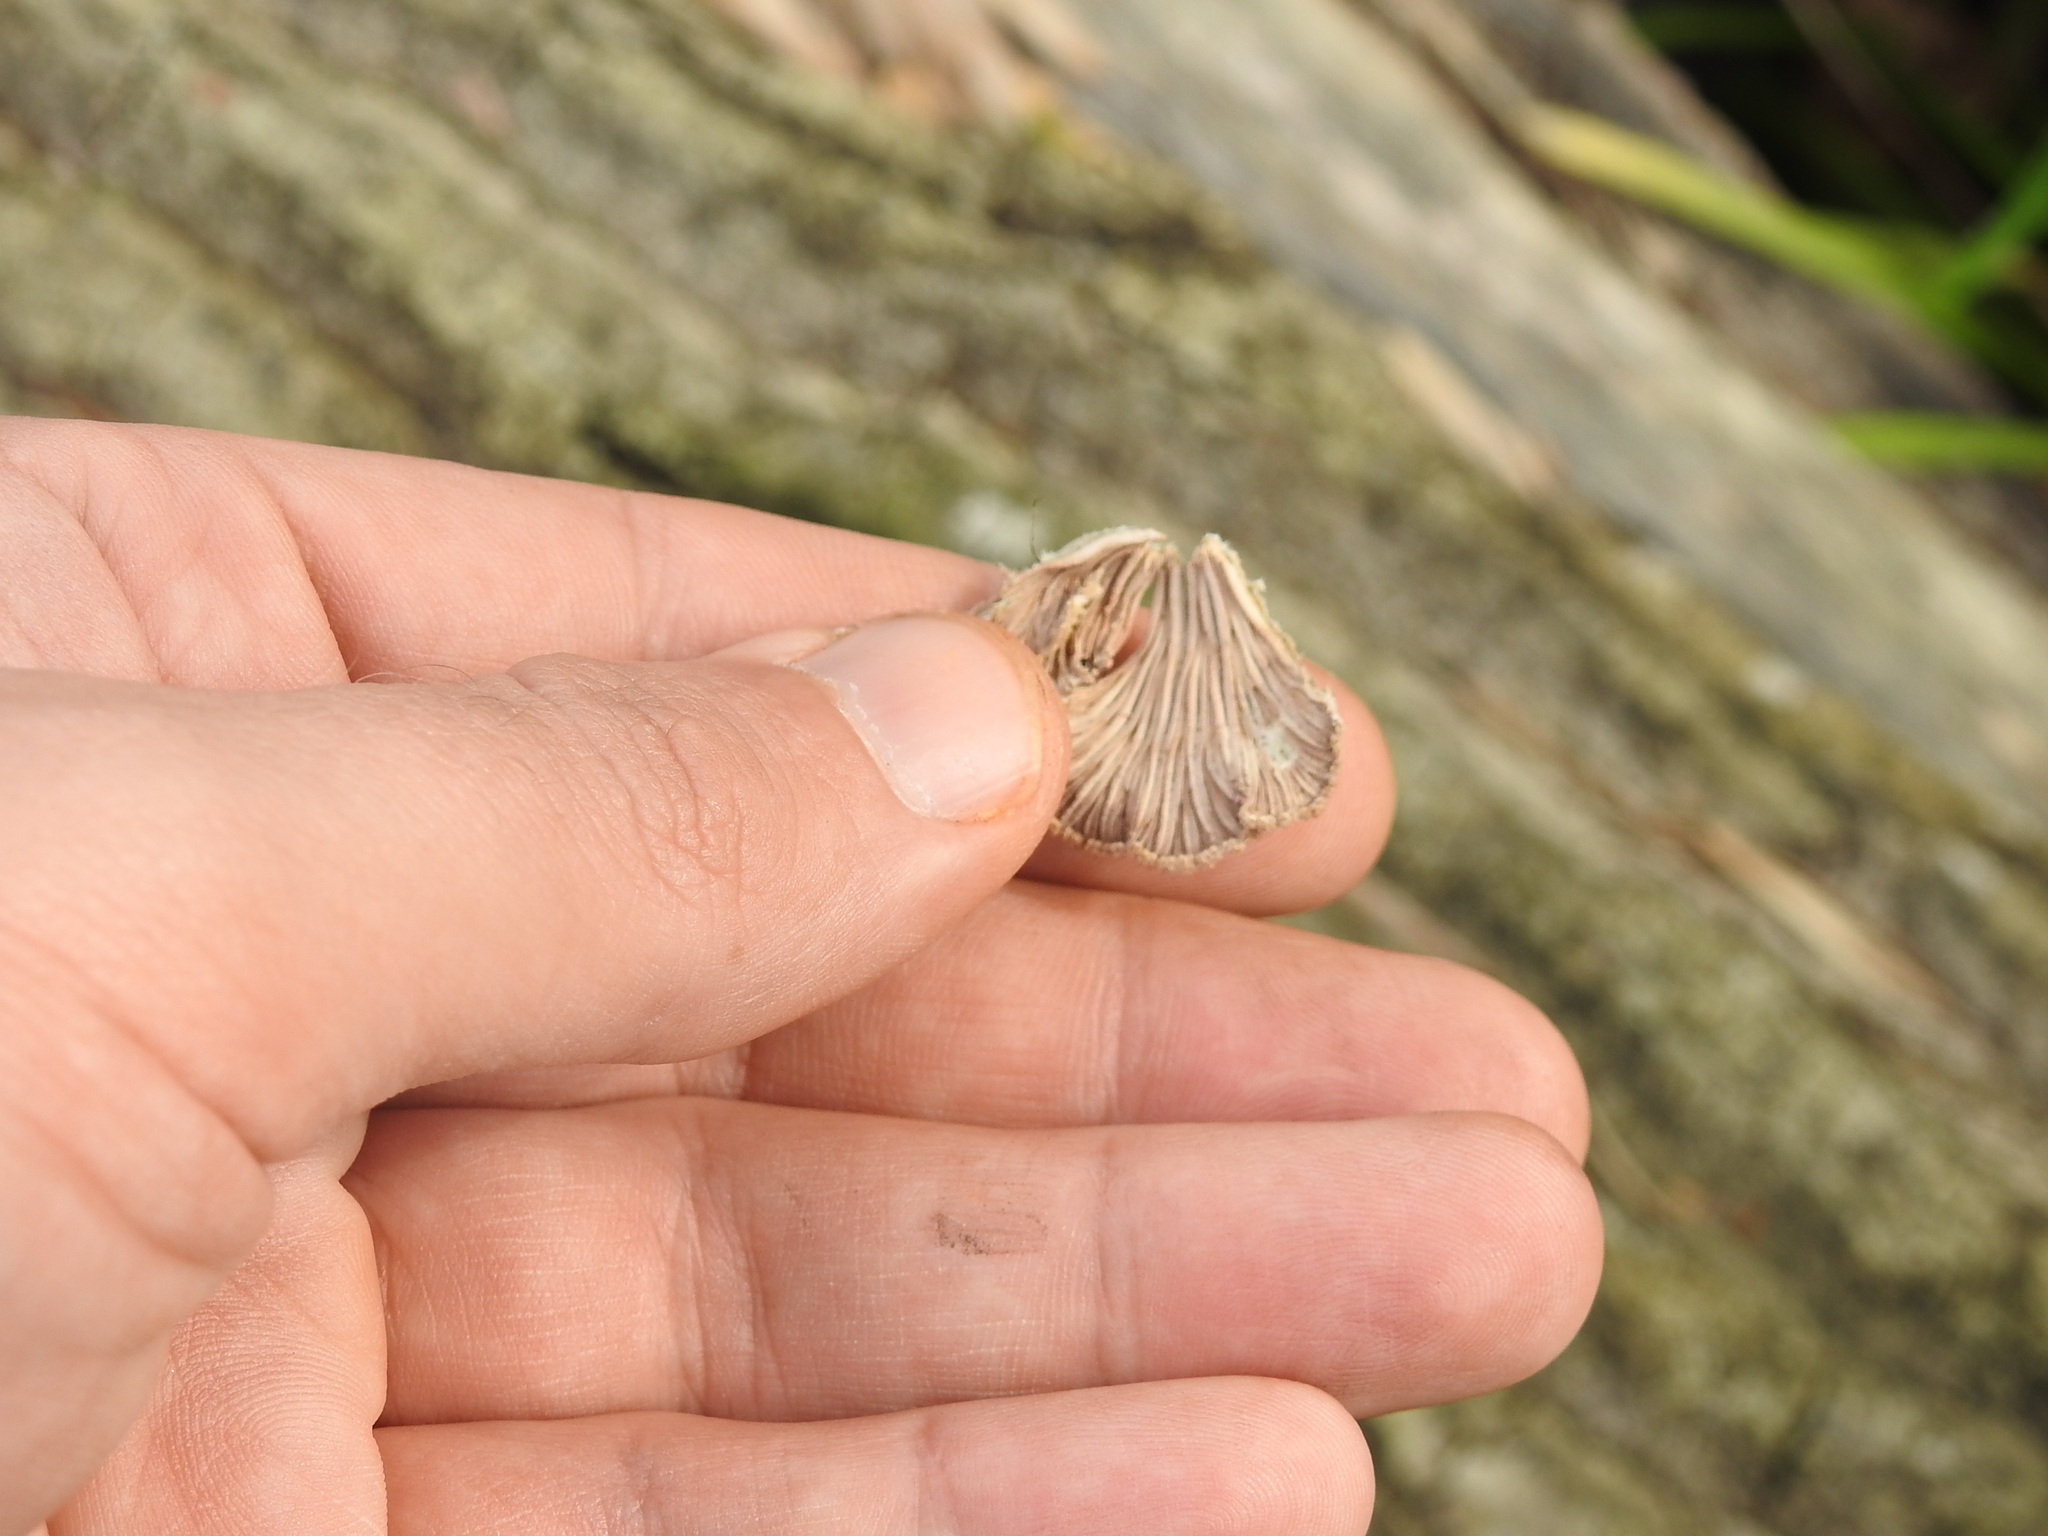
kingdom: Fungi
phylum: Basidiomycota
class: Agaricomycetes
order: Agaricales
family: Schizophyllaceae
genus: Schizophyllum
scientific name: Schizophyllum commune
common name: Common porecrust
